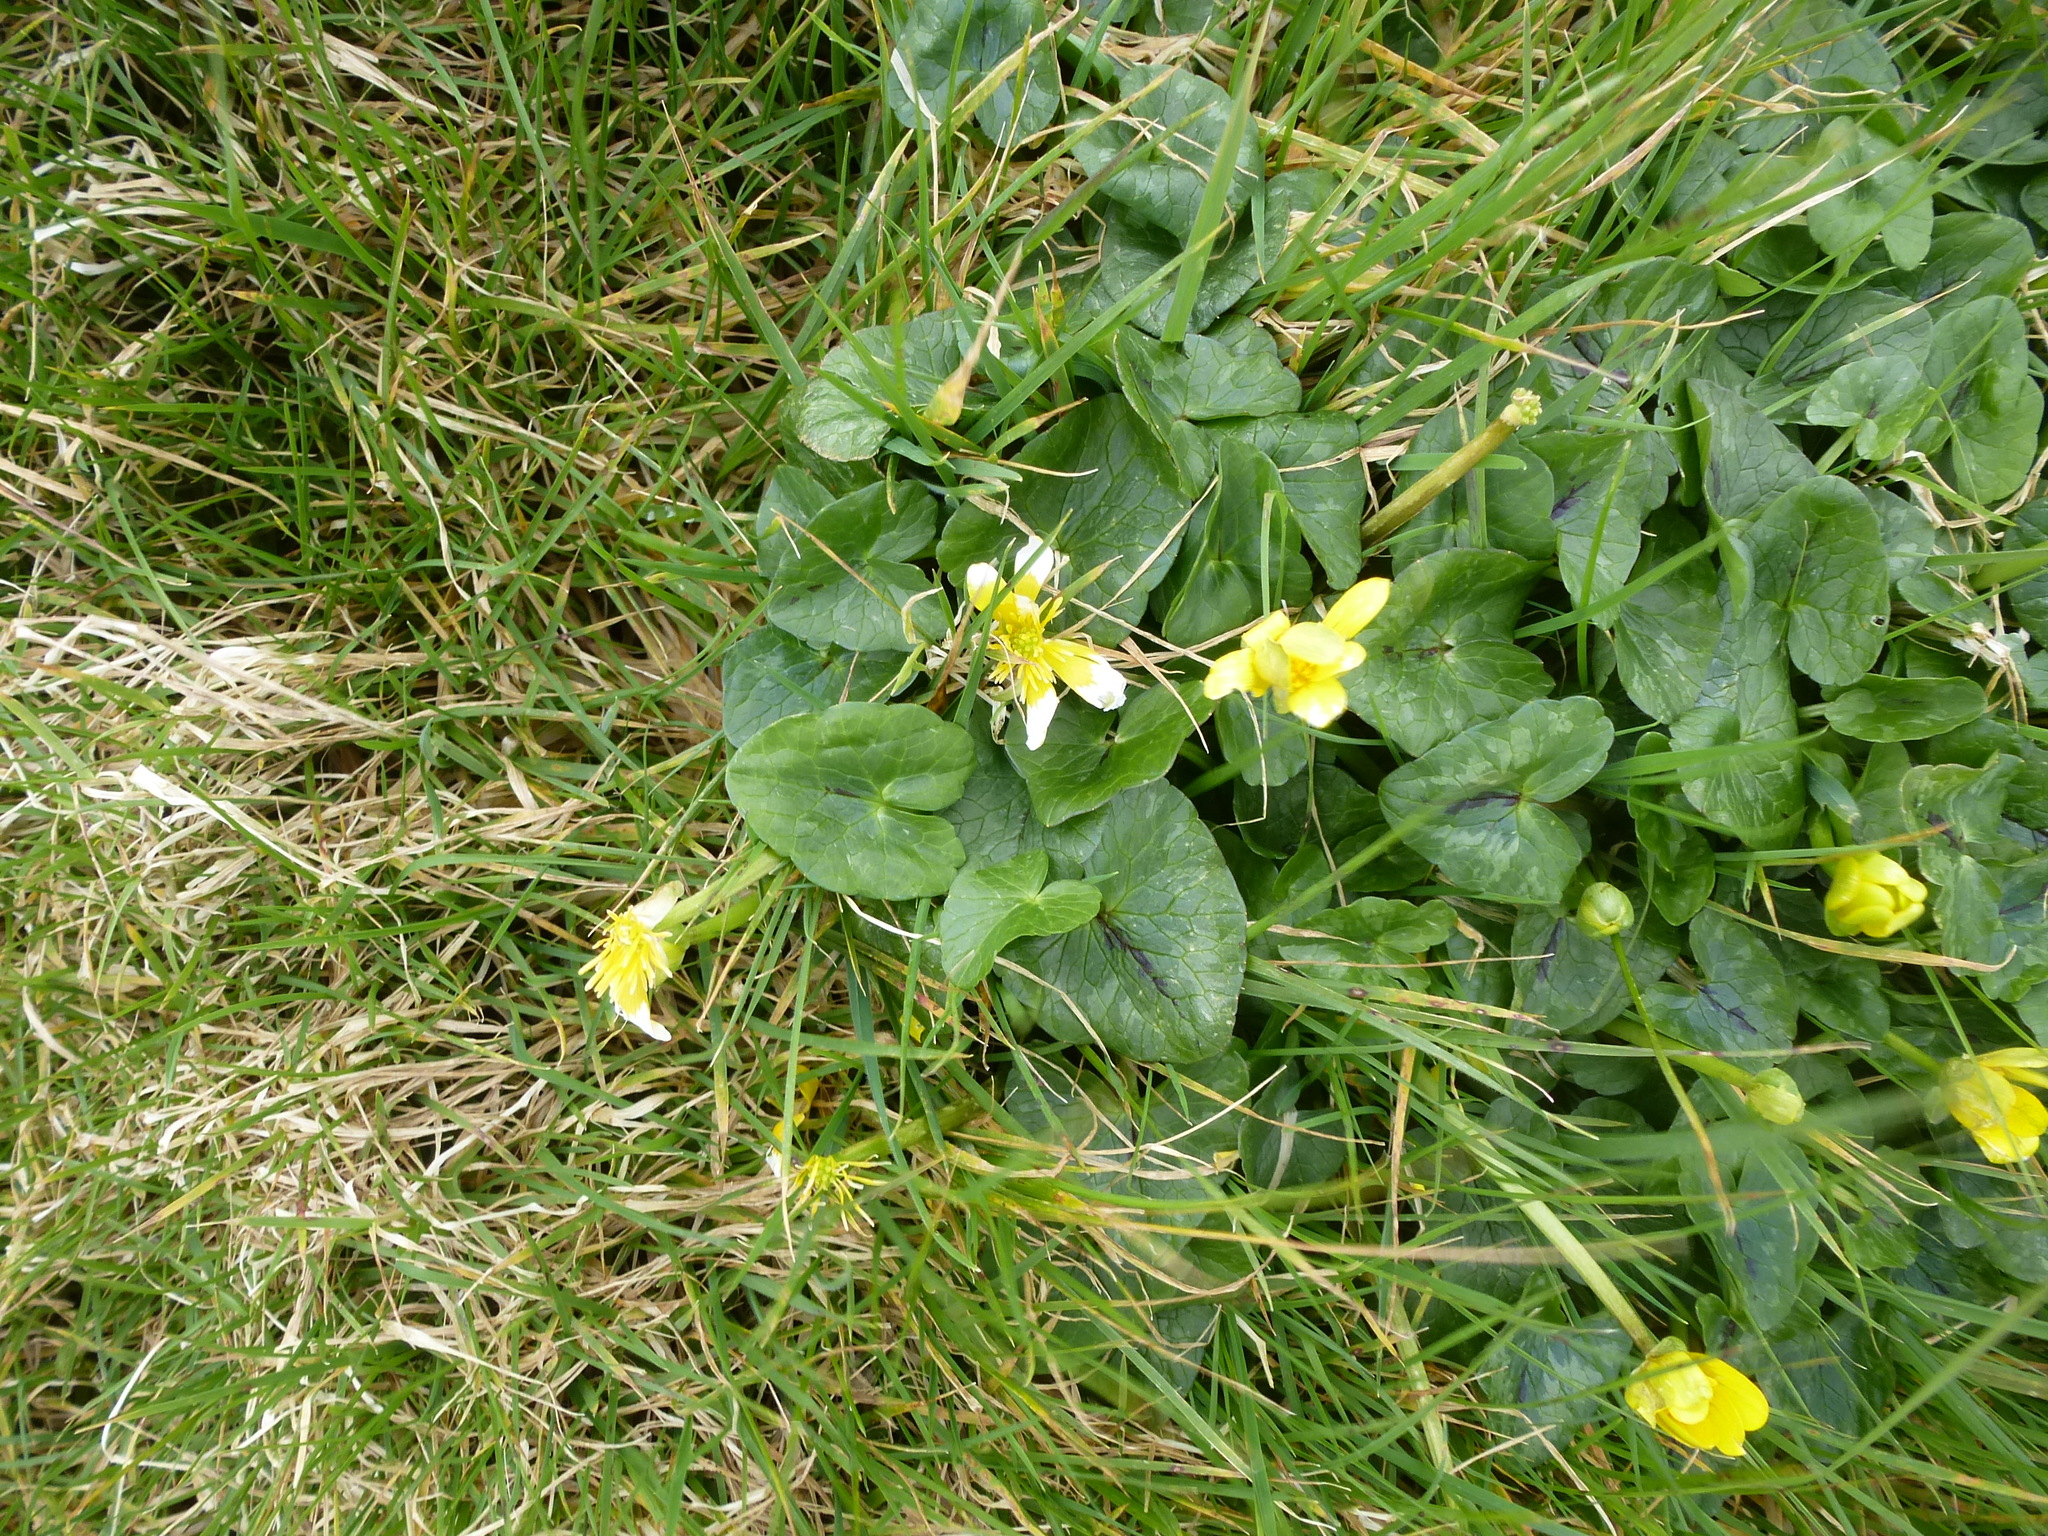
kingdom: Plantae
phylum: Tracheophyta
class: Magnoliopsida
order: Ranunculales
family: Ranunculaceae
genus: Ficaria
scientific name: Ficaria verna
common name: Lesser celandine
